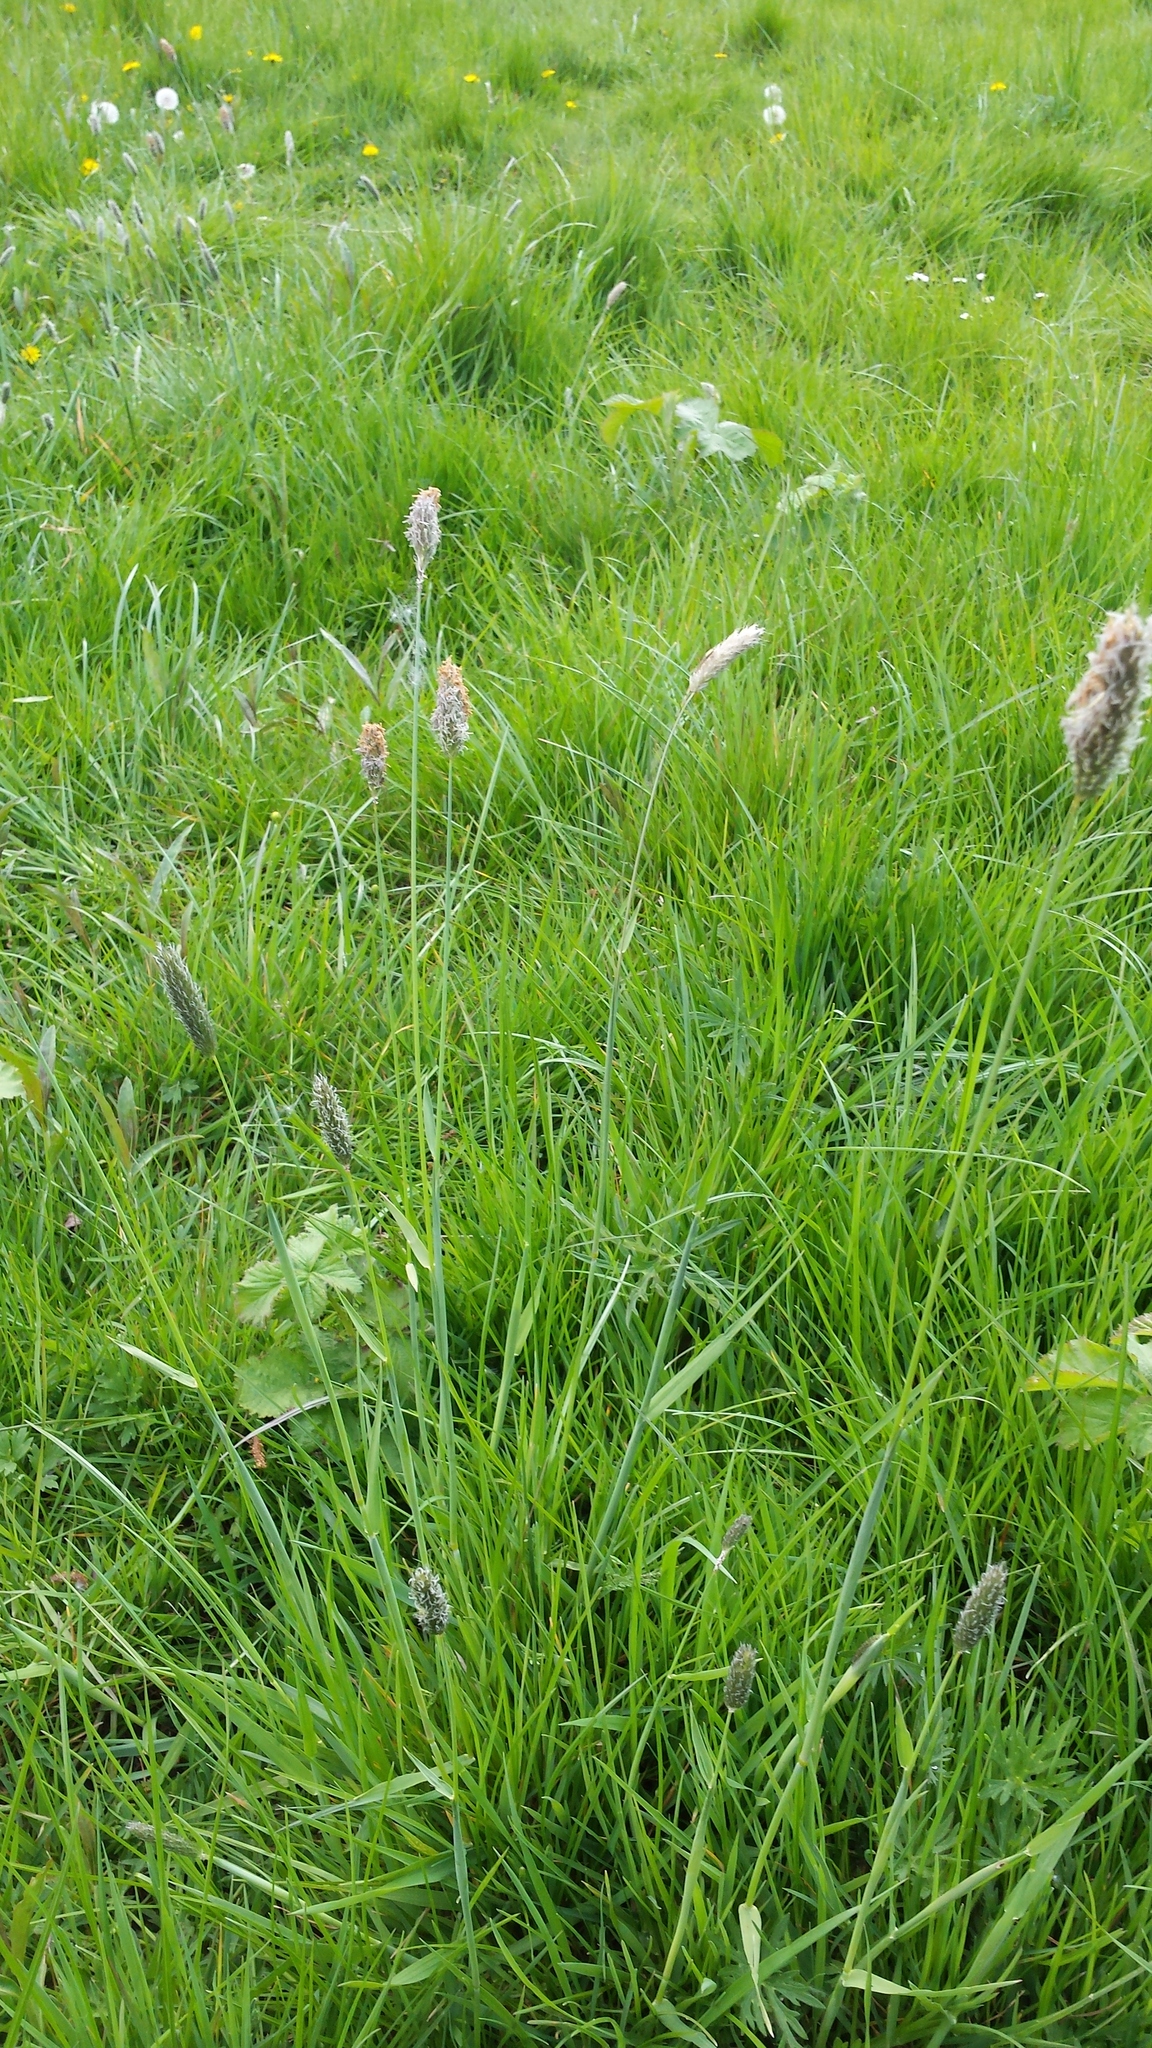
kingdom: Plantae
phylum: Tracheophyta
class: Liliopsida
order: Poales
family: Poaceae
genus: Alopecurus
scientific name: Alopecurus pratensis
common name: Meadow foxtail
